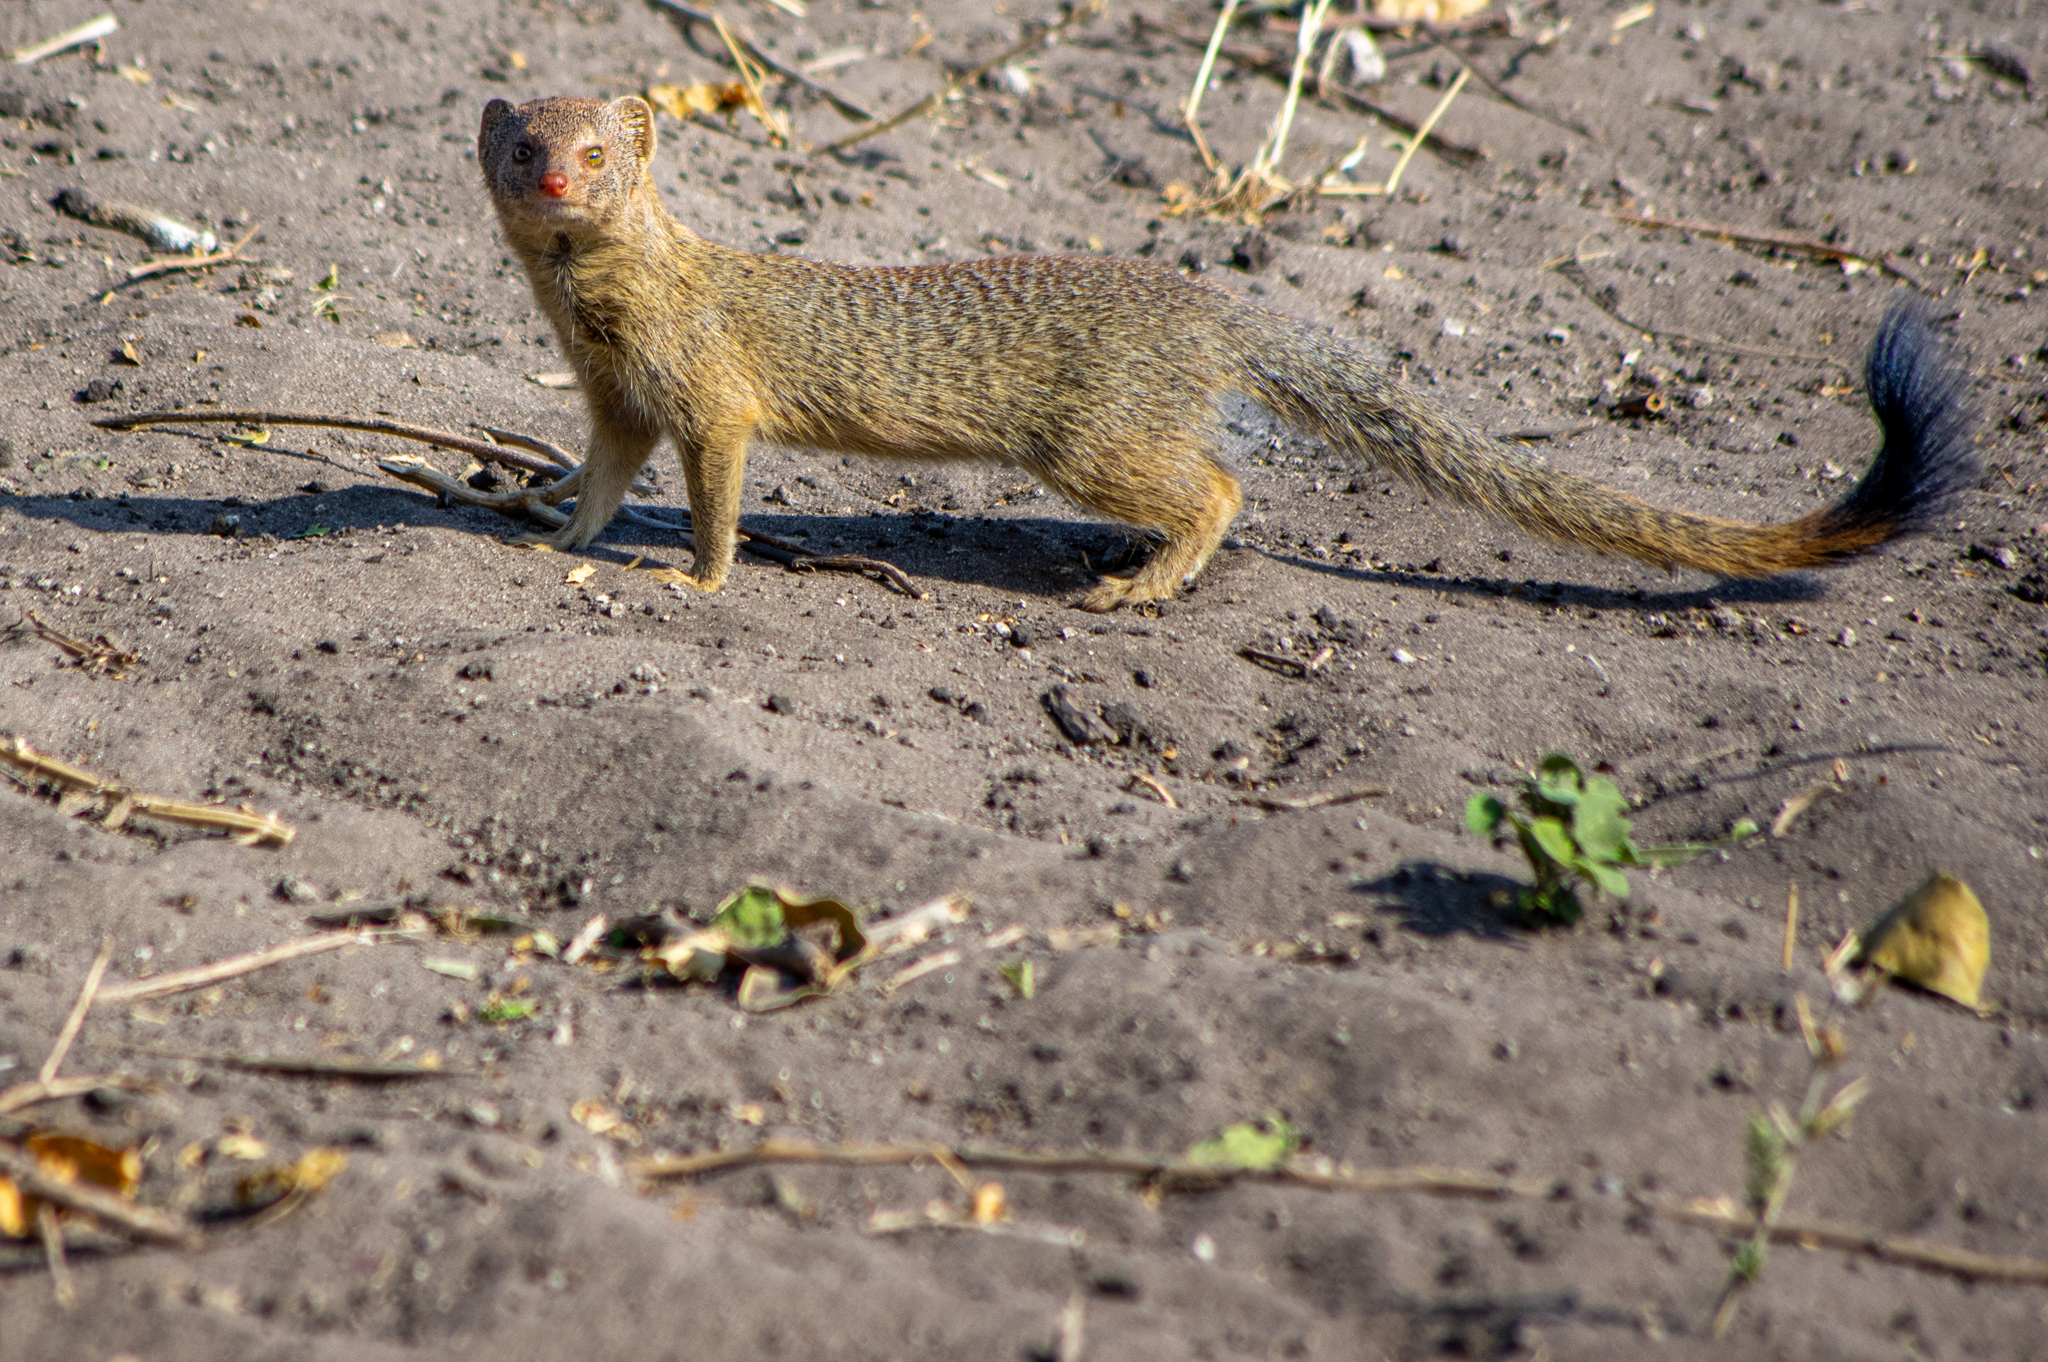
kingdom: Animalia
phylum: Chordata
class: Mammalia
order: Carnivora
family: Herpestidae
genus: Galerella
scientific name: Galerella sanguinea
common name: Slender mongoose
